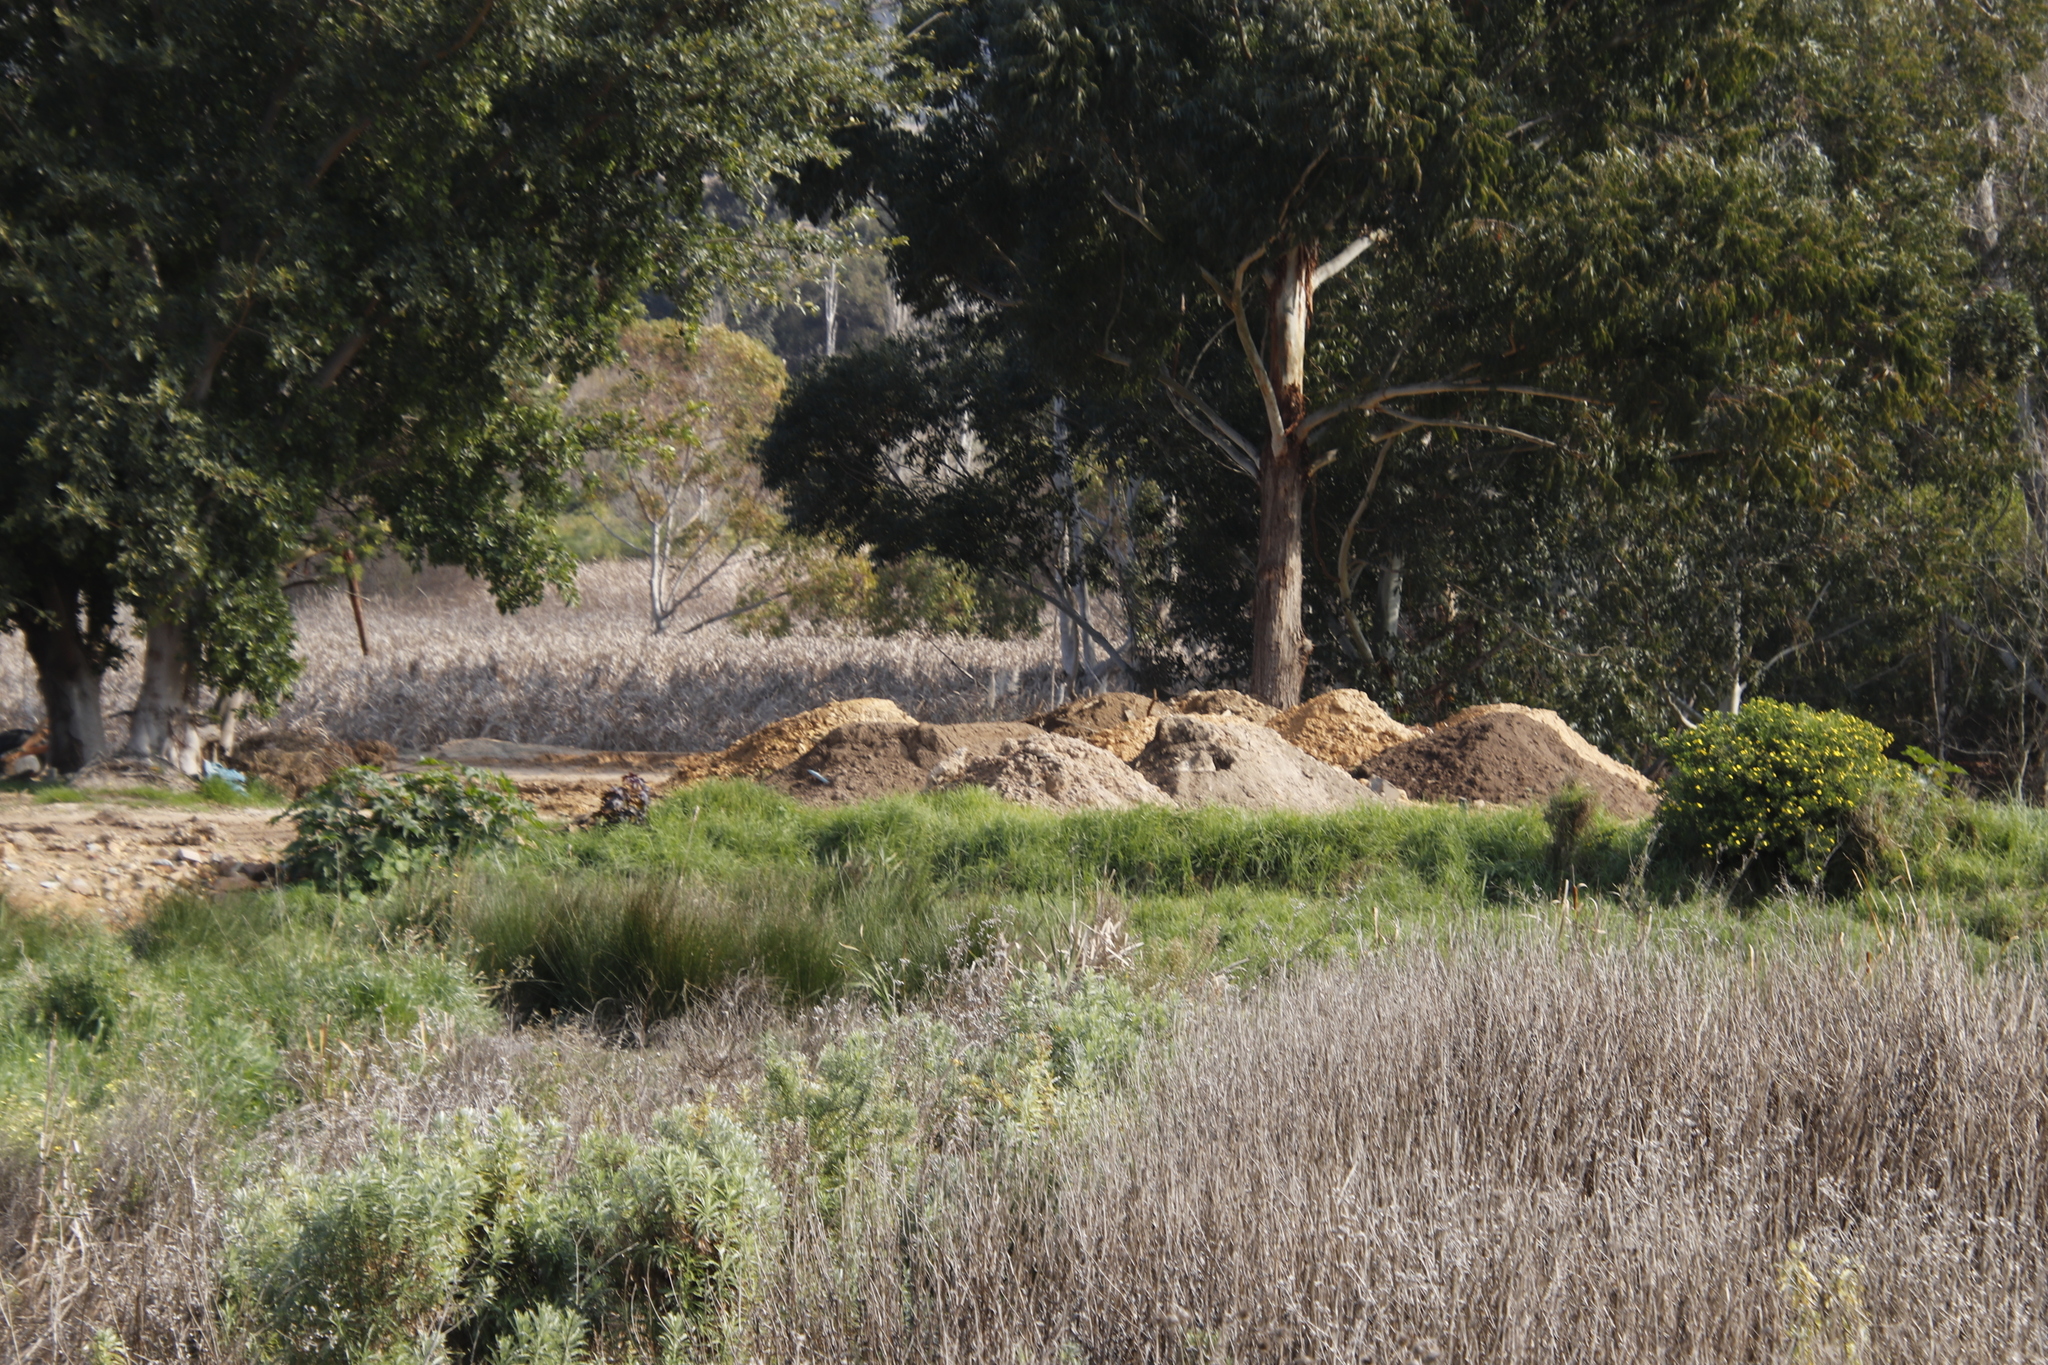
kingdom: Plantae
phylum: Tracheophyta
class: Liliopsida
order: Poales
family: Poaceae
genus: Cenchrus
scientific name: Cenchrus clandestinus
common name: Kikuyugrass
